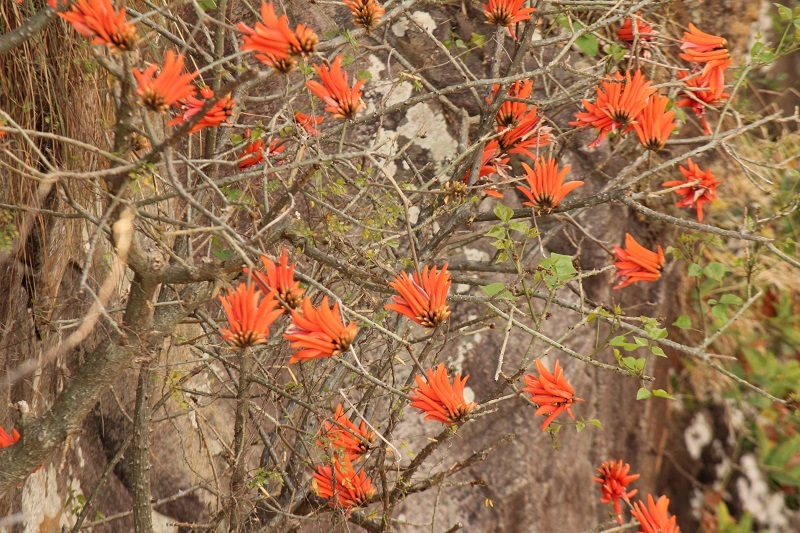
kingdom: Plantae
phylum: Tracheophyta
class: Magnoliopsida
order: Fabales
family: Fabaceae
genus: Erythrina
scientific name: Erythrina lysistemon
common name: Common coral tree
